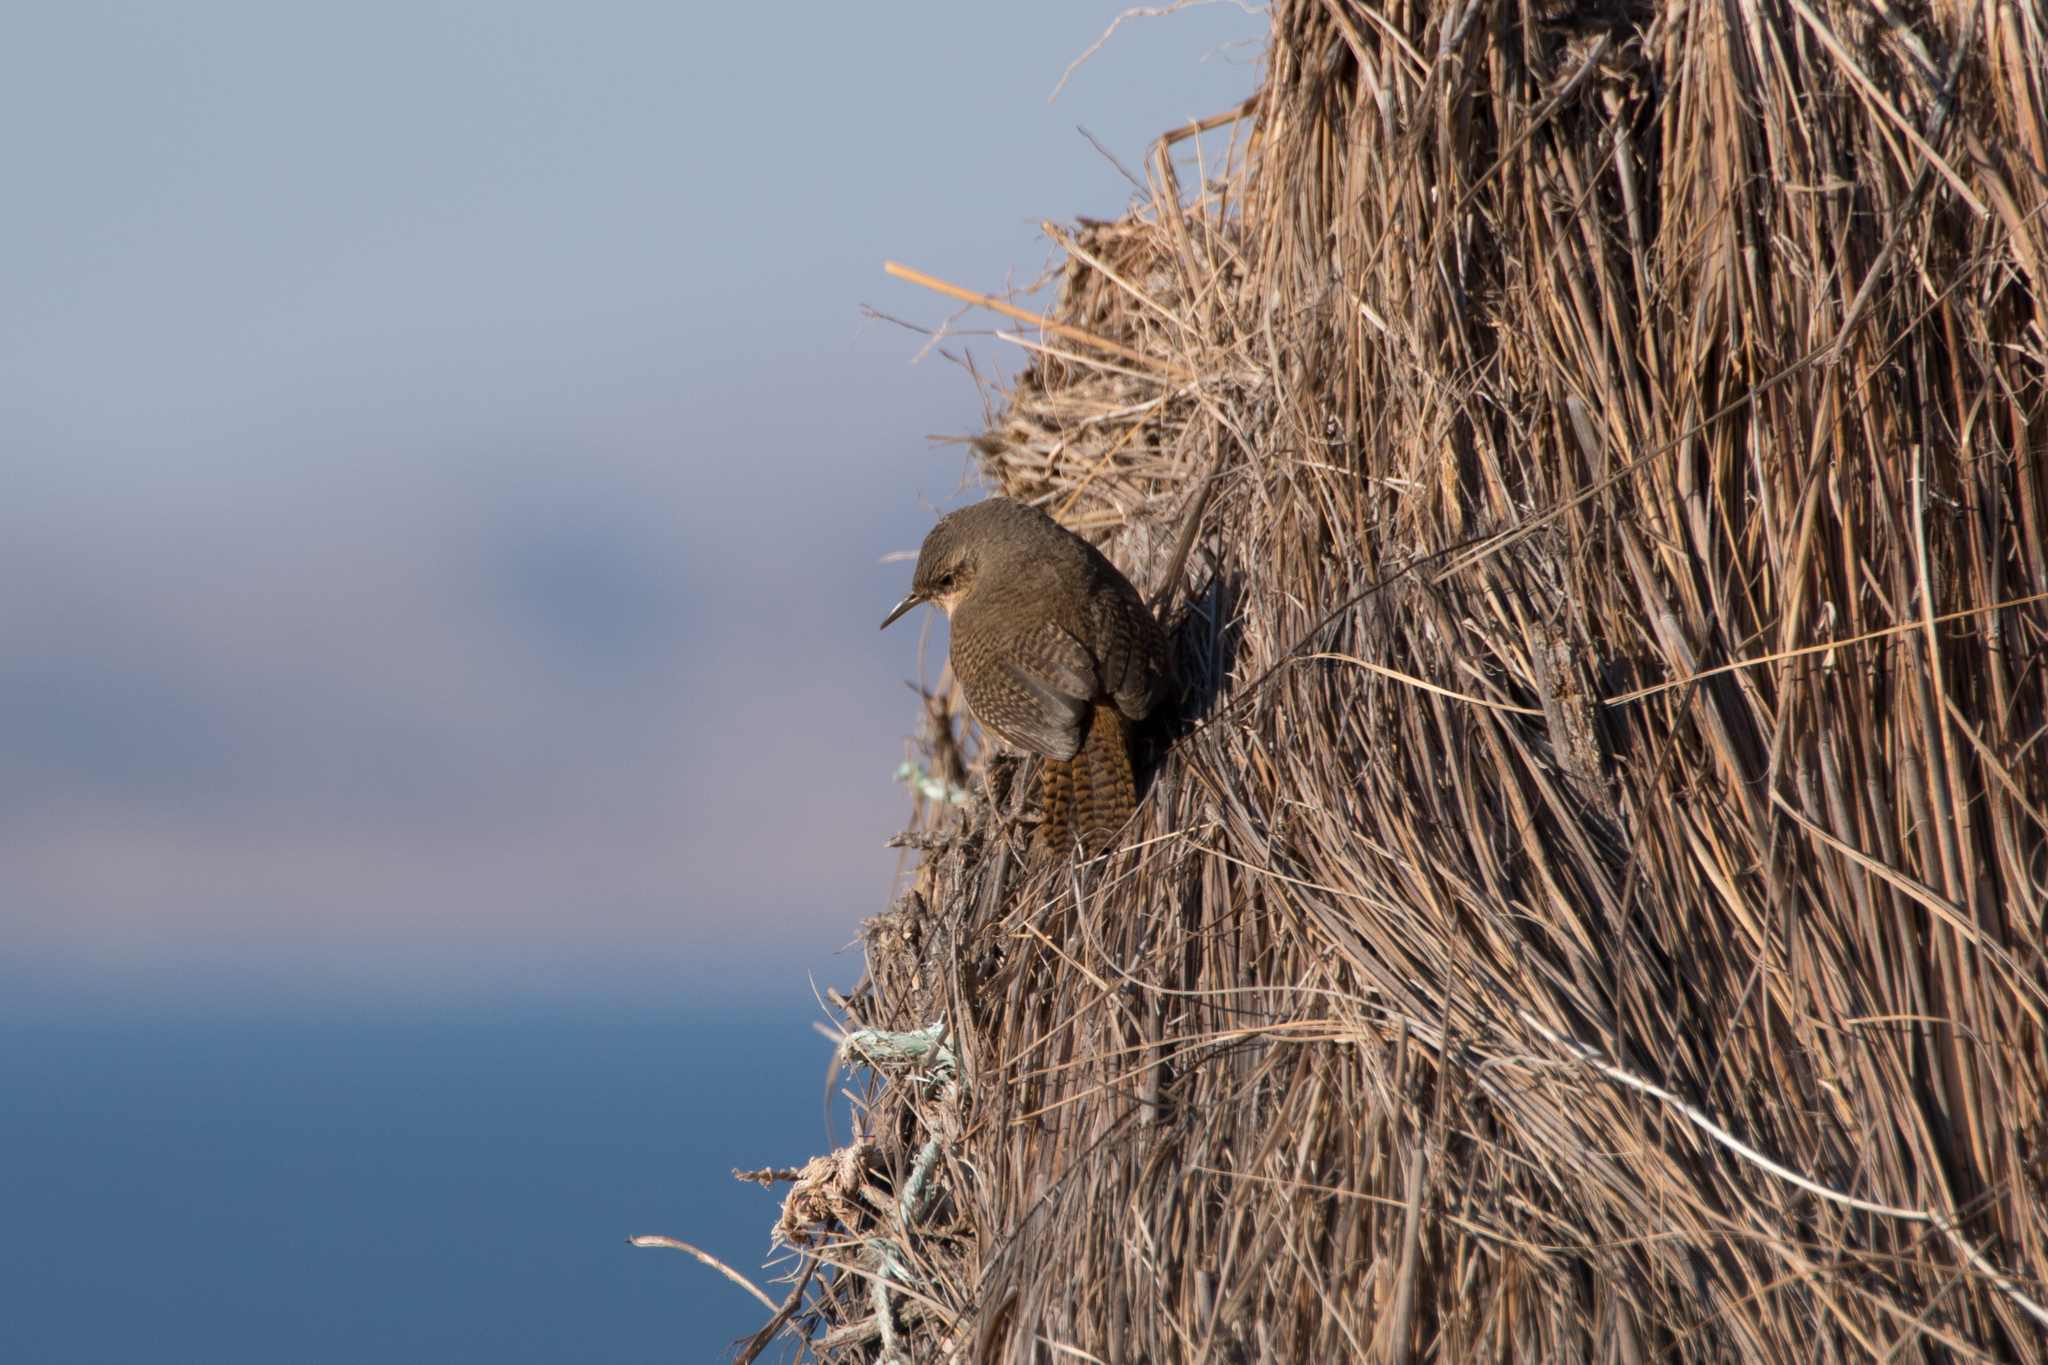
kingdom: Animalia
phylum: Chordata
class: Aves
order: Passeriformes
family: Troglodytidae
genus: Troglodytes
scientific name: Troglodytes aedon
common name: House wren
